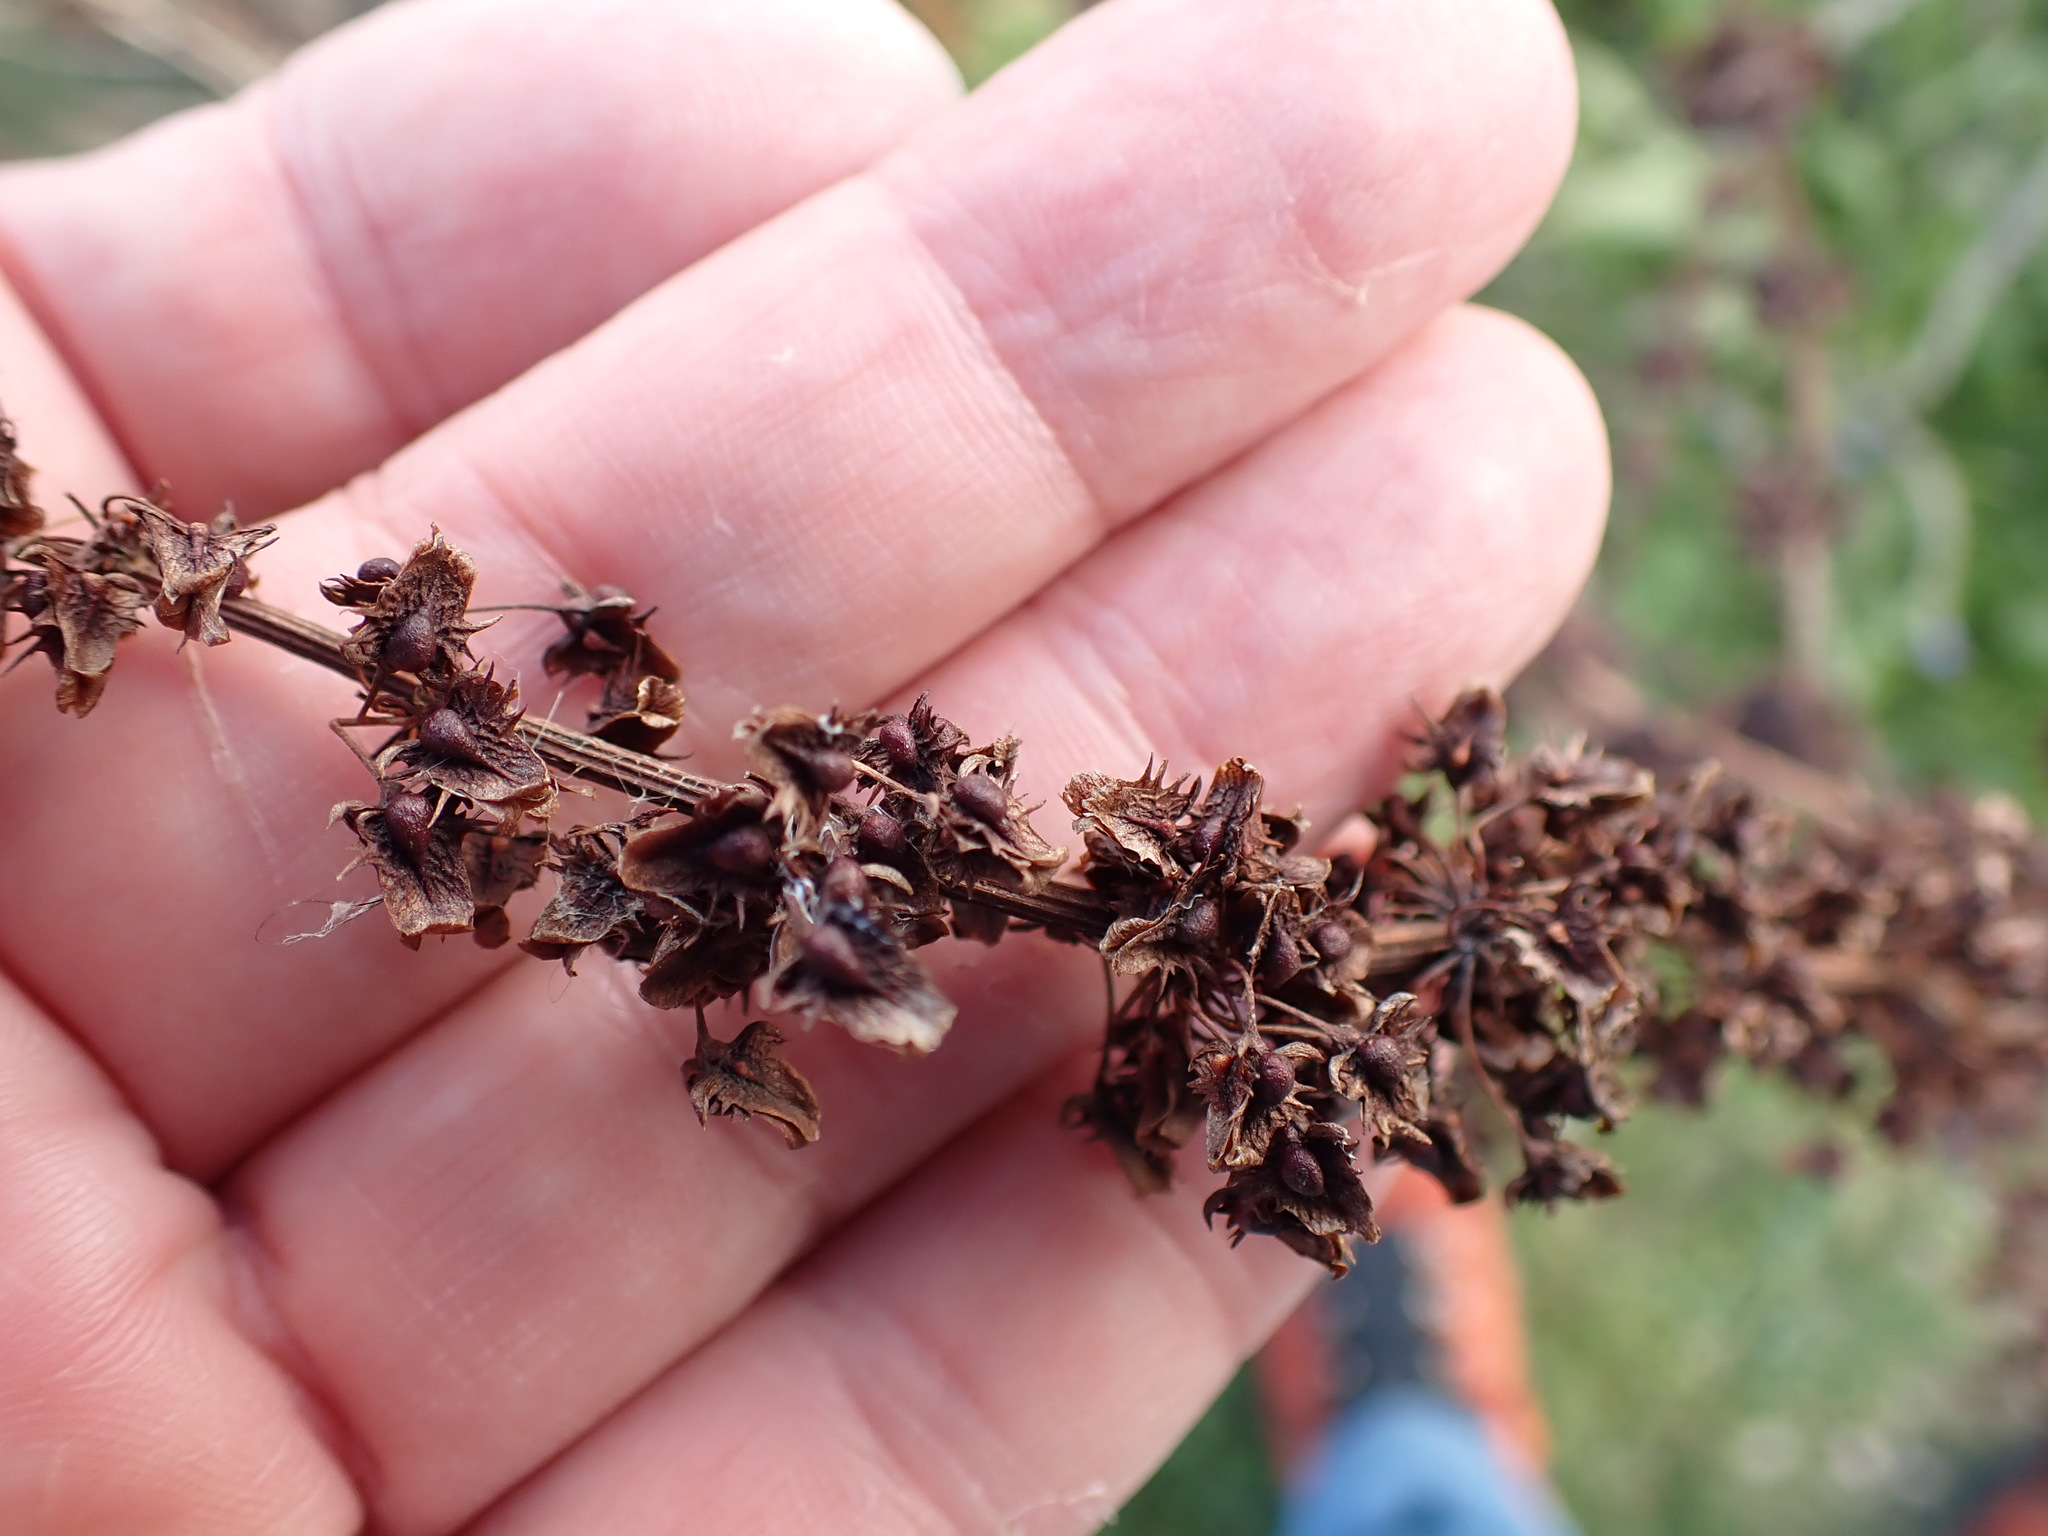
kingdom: Plantae
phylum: Tracheophyta
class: Magnoliopsida
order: Caryophyllales
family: Polygonaceae
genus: Rumex
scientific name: Rumex obtusifolius
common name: Bitter dock
